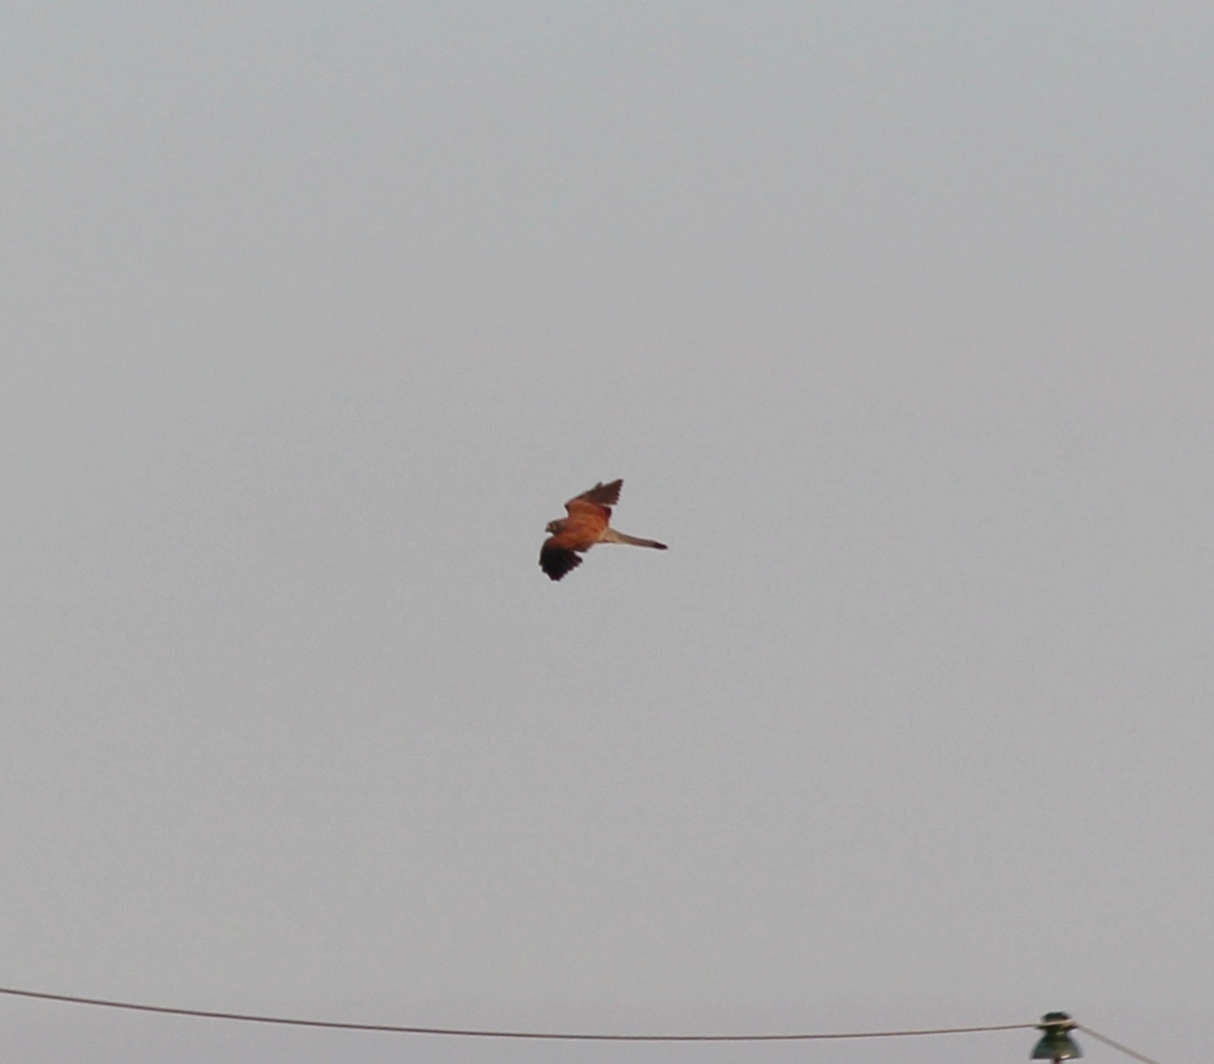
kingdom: Animalia
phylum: Chordata
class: Aves
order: Falconiformes
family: Falconidae
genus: Falco
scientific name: Falco tinnunculus
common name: Common kestrel
